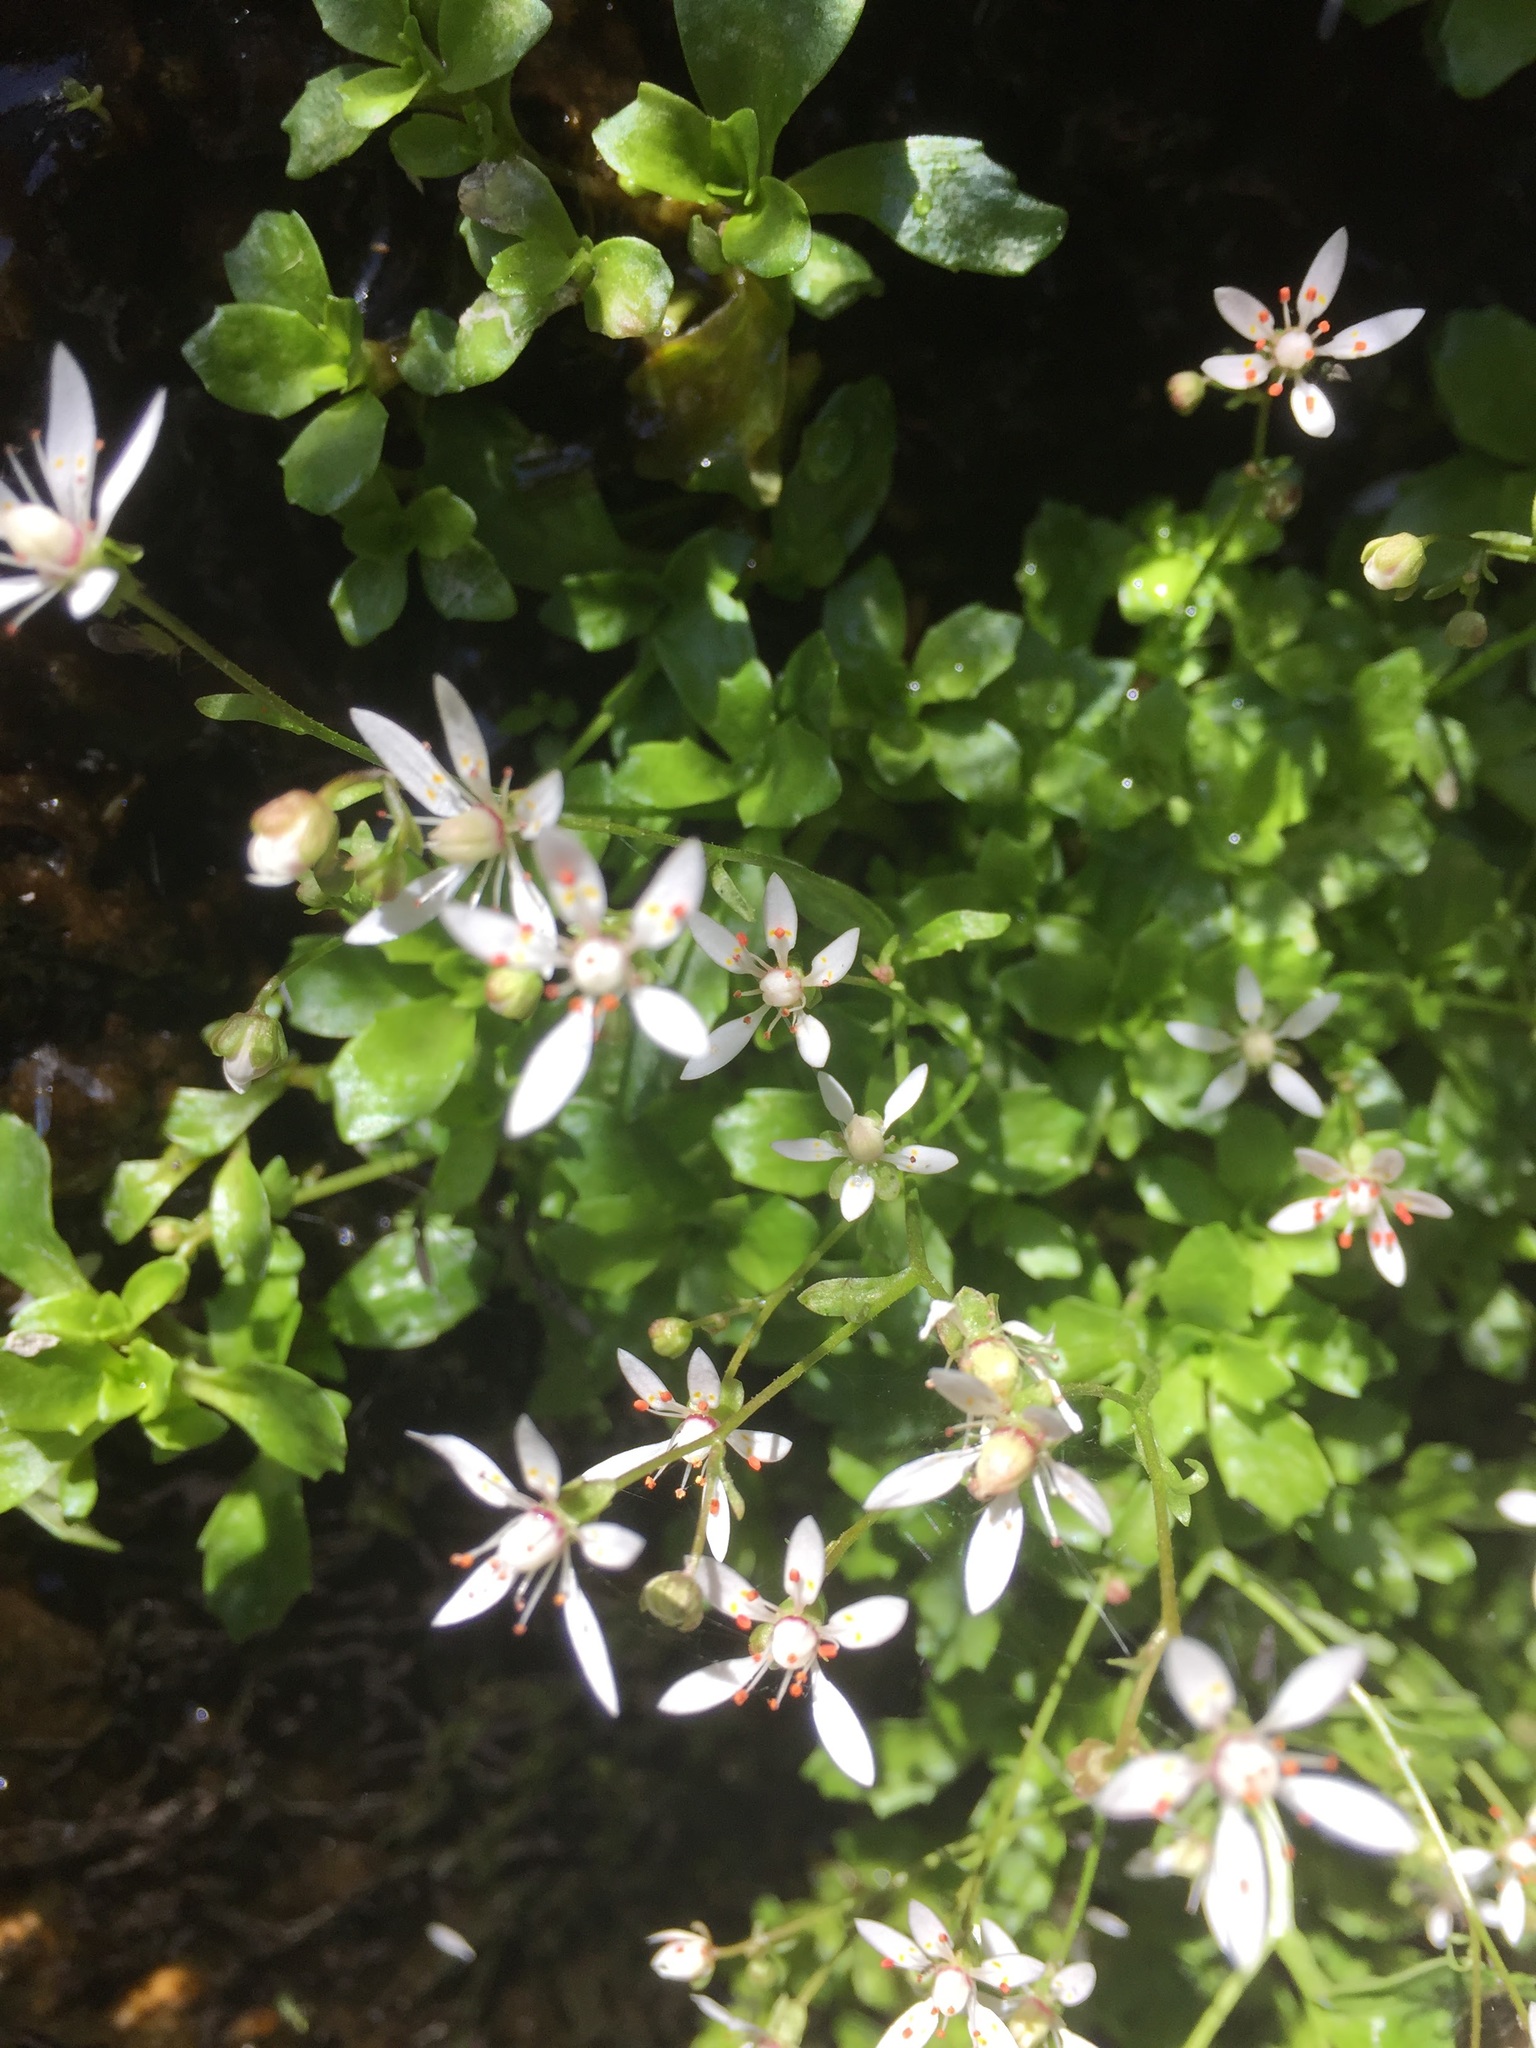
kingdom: Plantae
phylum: Tracheophyta
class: Magnoliopsida
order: Saxifragales
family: Saxifragaceae
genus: Micranthes
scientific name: Micranthes stellaris
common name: Starry saxifrage
